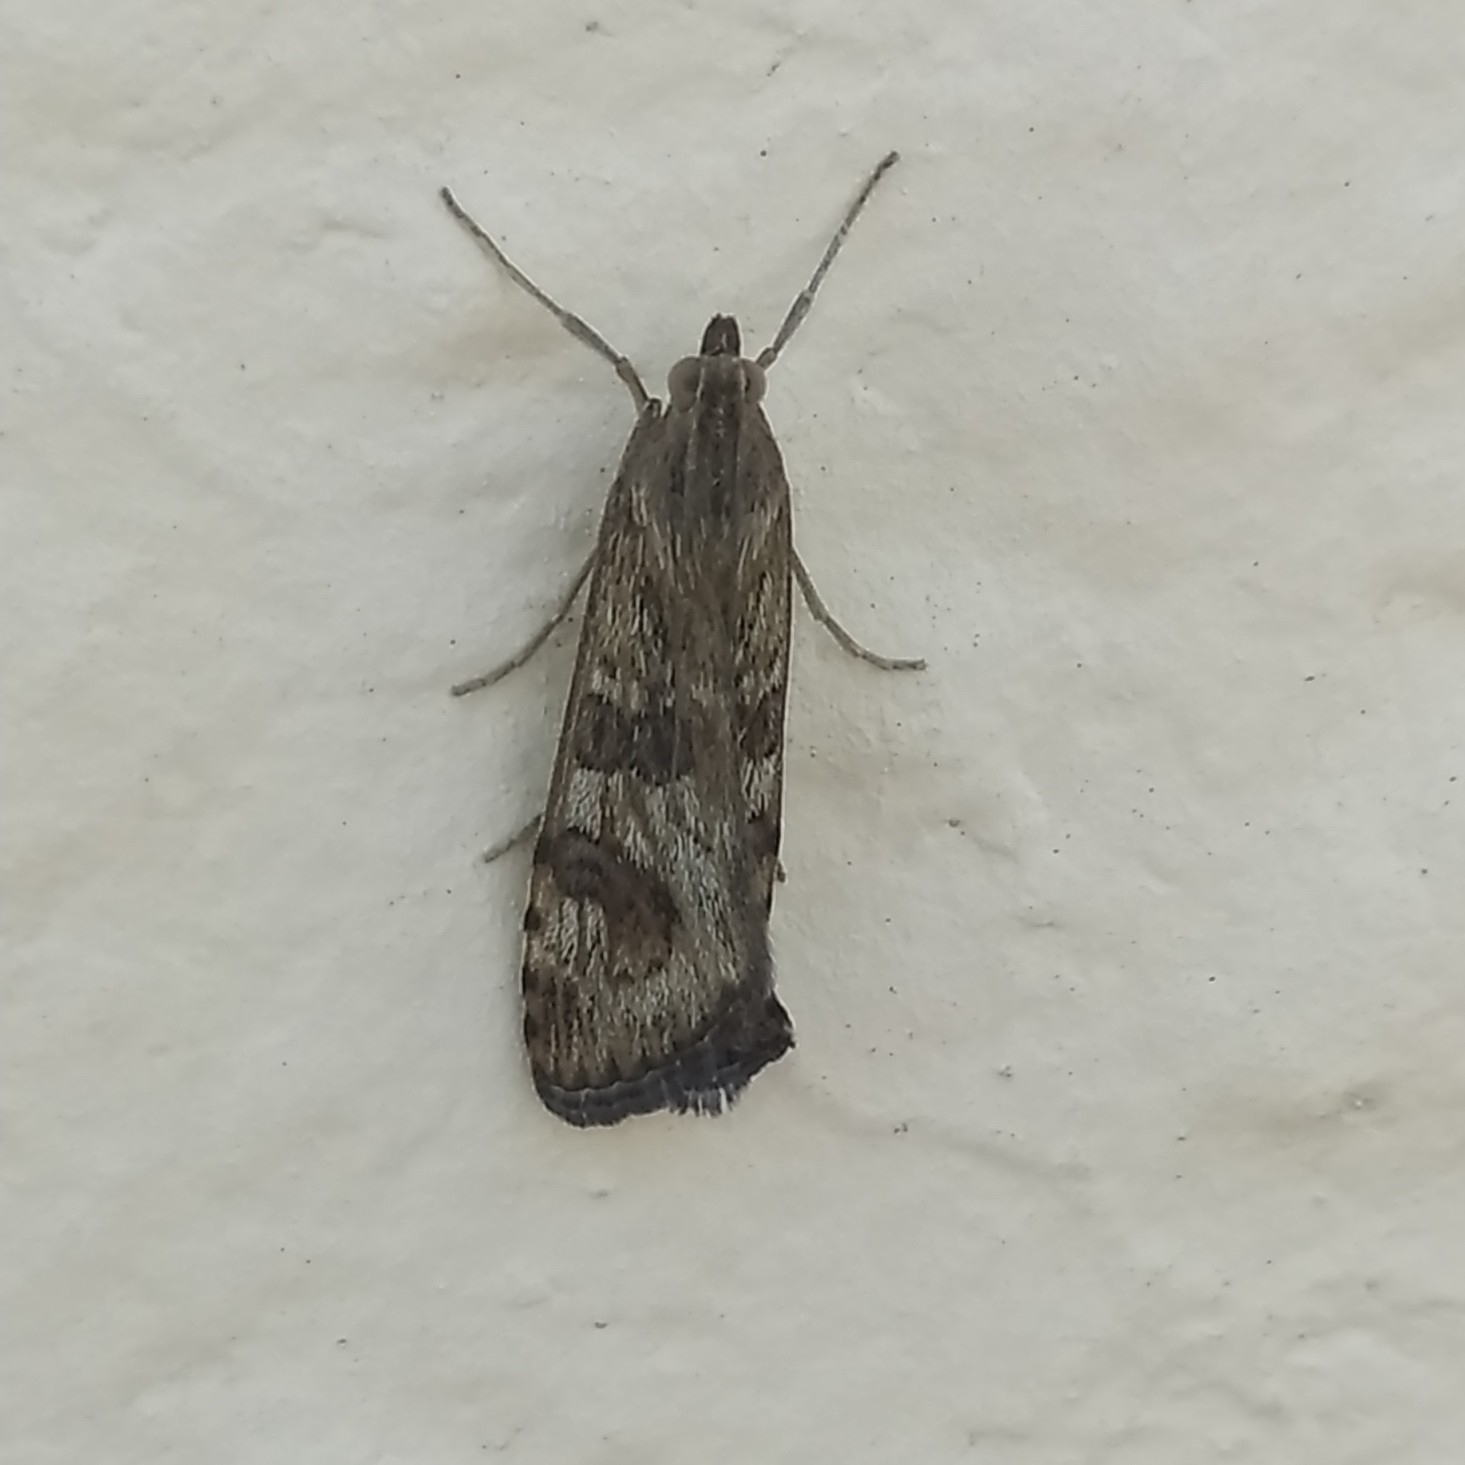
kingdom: Animalia
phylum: Arthropoda
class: Insecta
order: Lepidoptera
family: Crambidae
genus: Nomophila
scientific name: Nomophila noctuella
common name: Rush veneer
